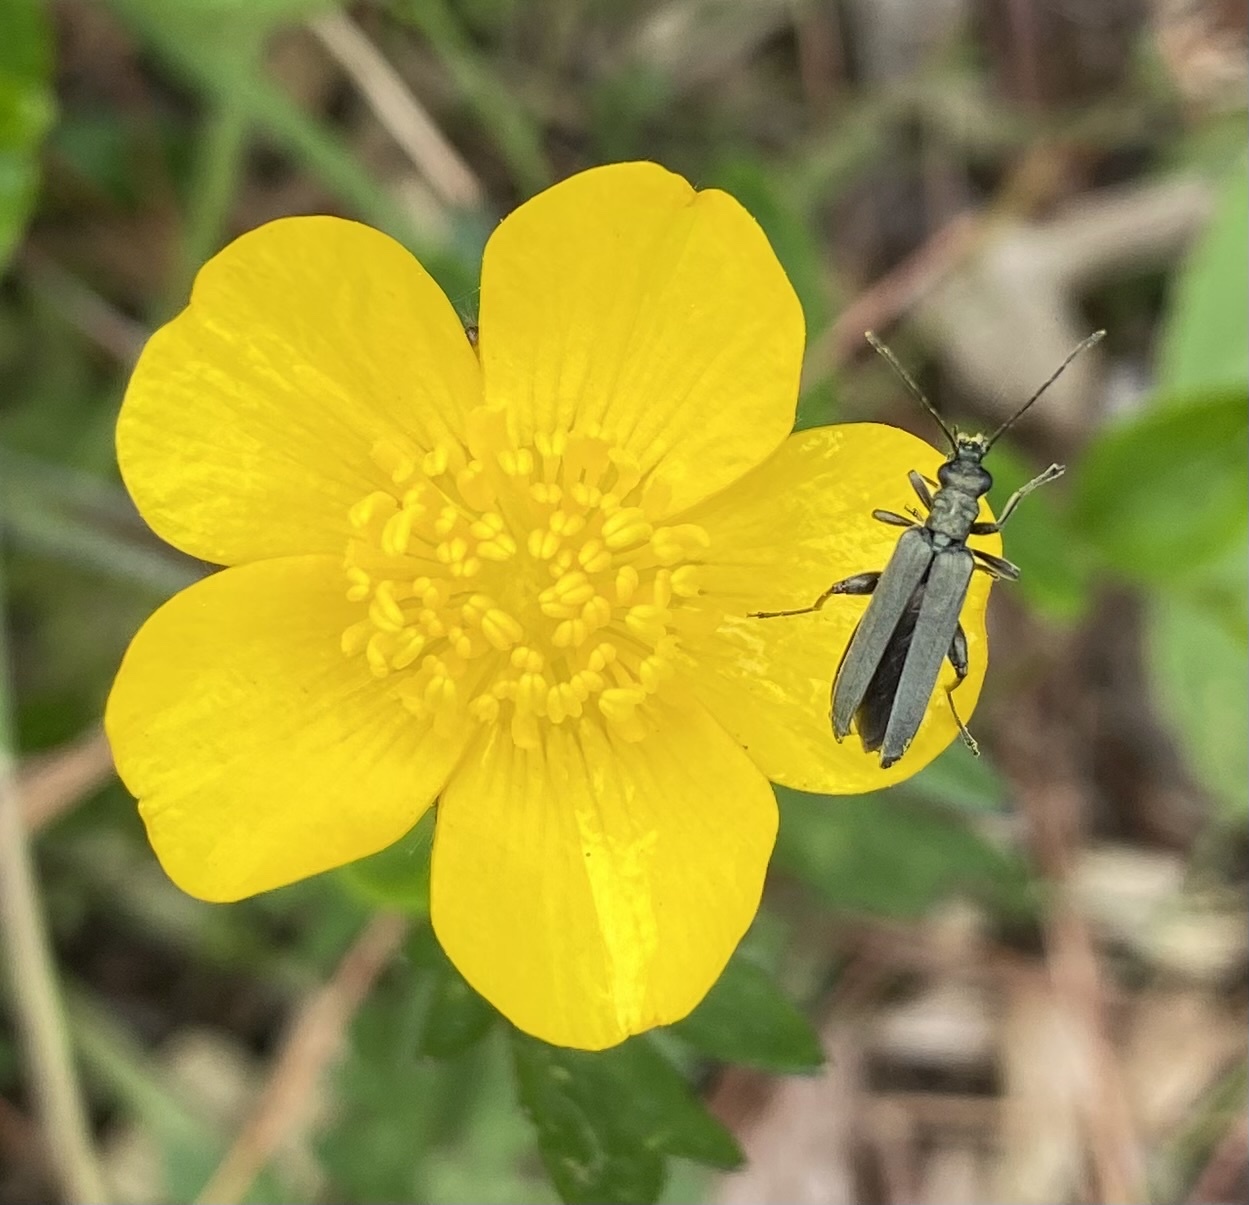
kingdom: Animalia
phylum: Arthropoda
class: Insecta
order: Coleoptera
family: Oedemeridae
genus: Oedemera
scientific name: Oedemera virescens
